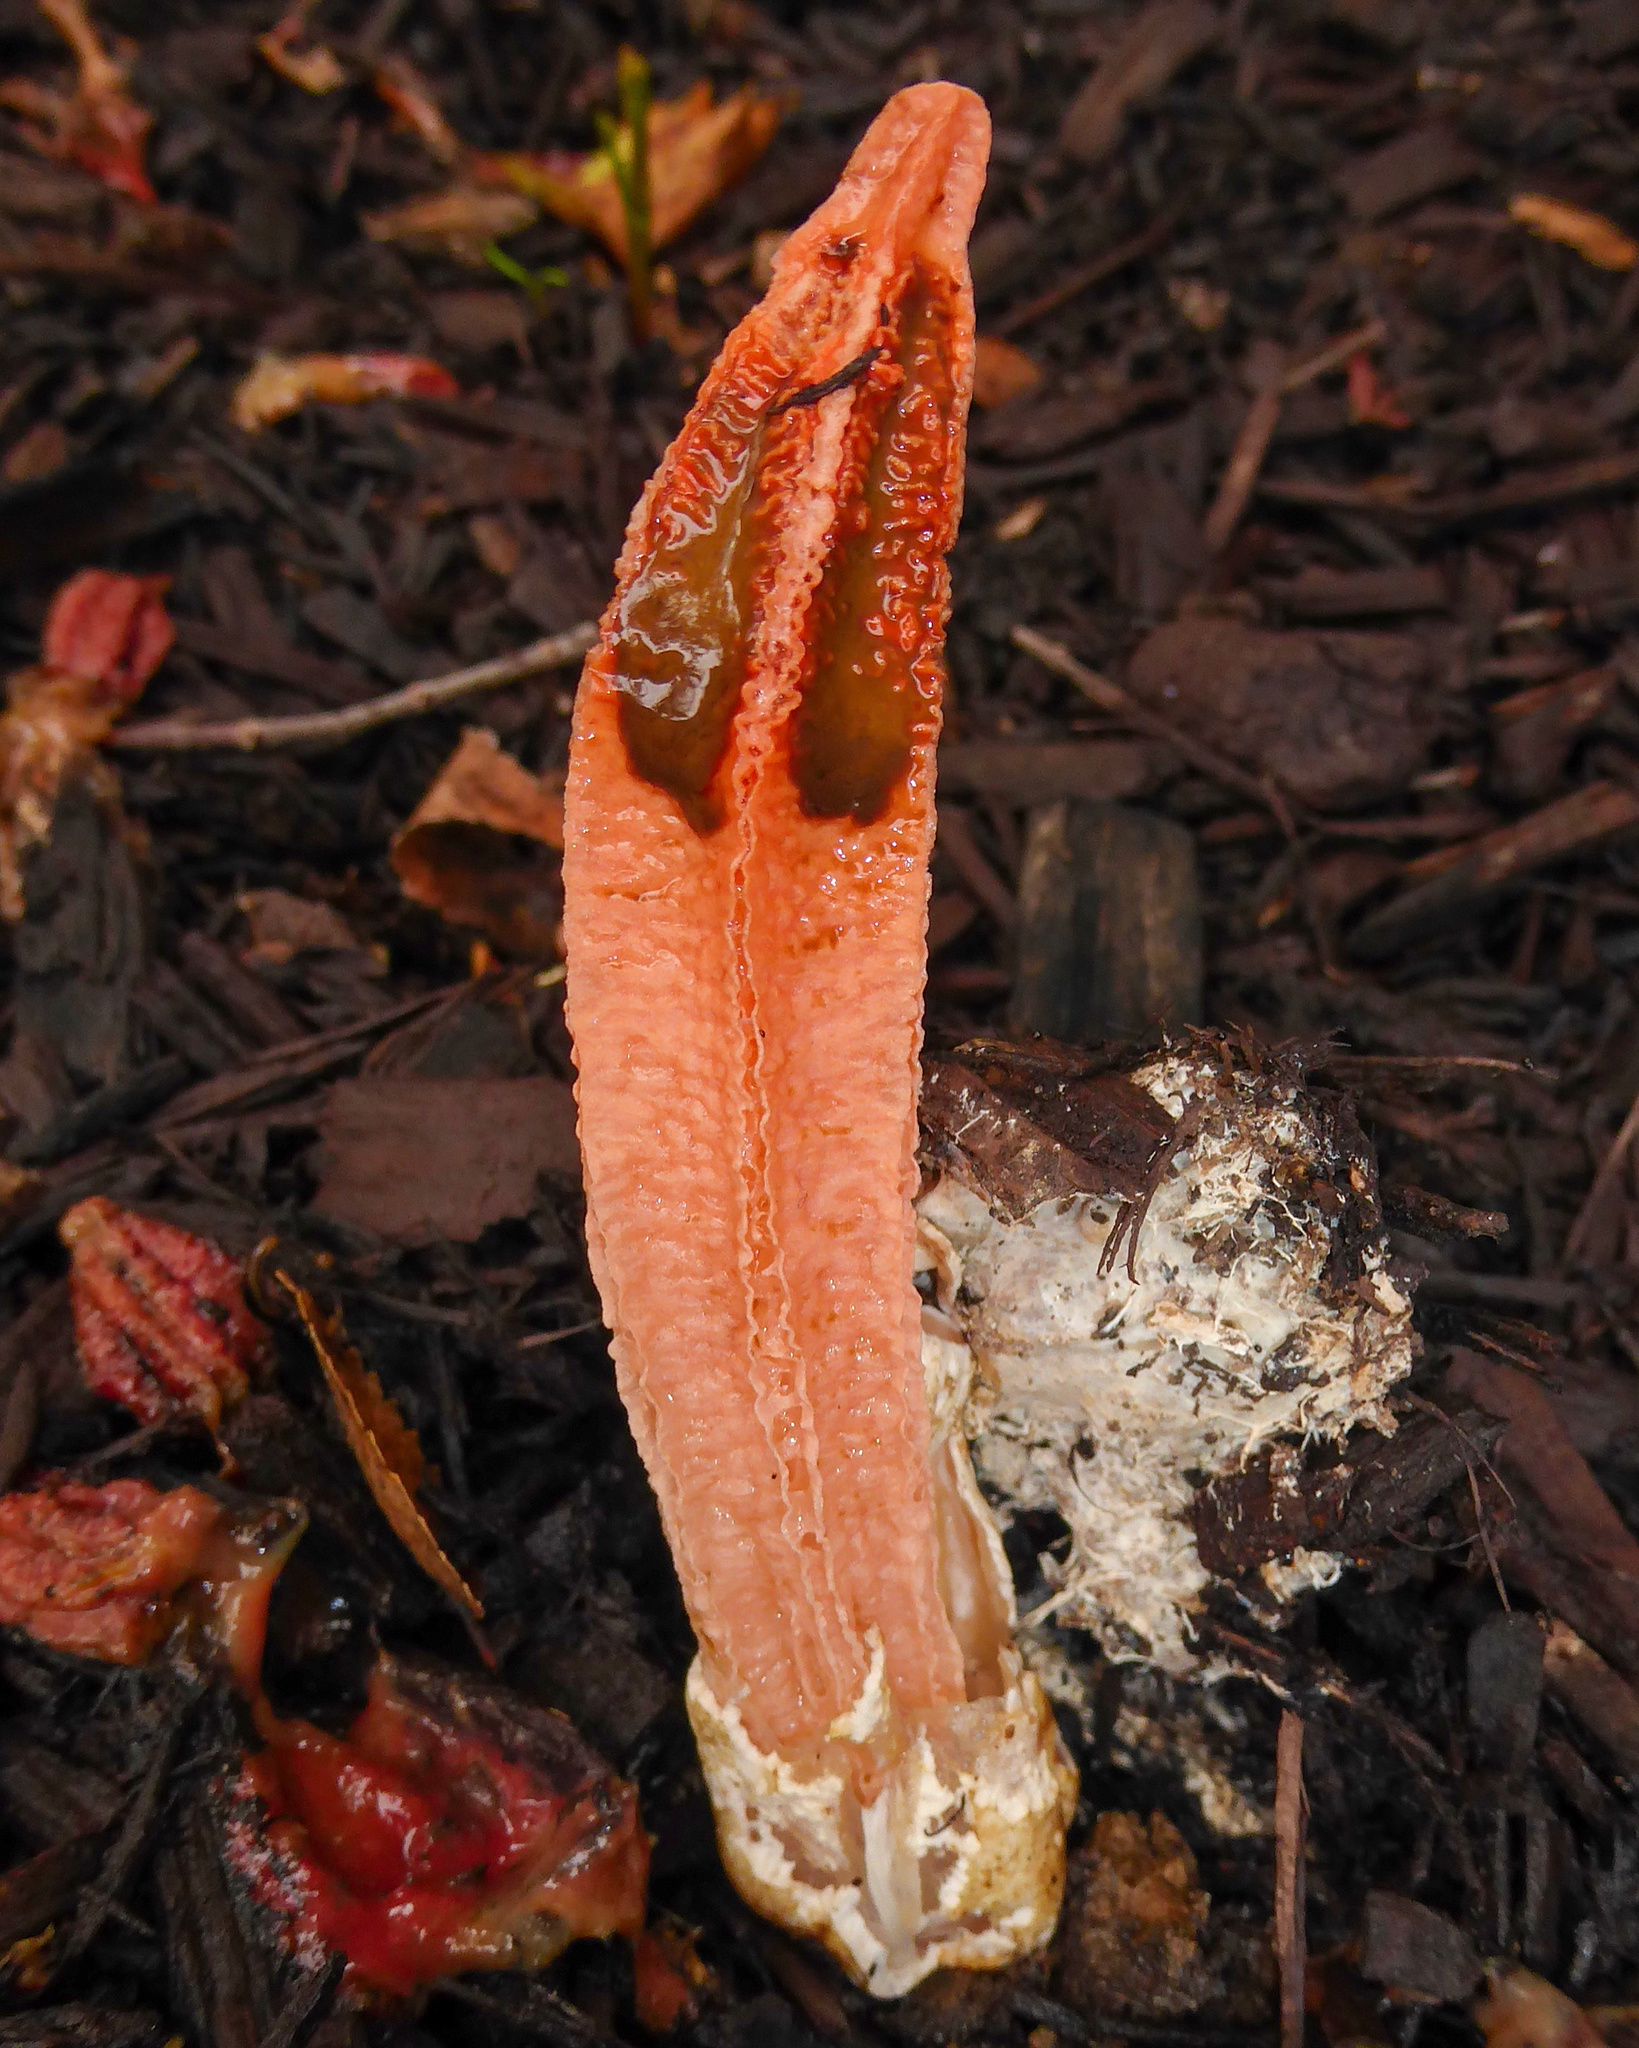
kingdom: Fungi
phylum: Basidiomycota
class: Agaricomycetes
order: Phallales
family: Phallaceae
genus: Lysurus
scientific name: Lysurus mokusin
